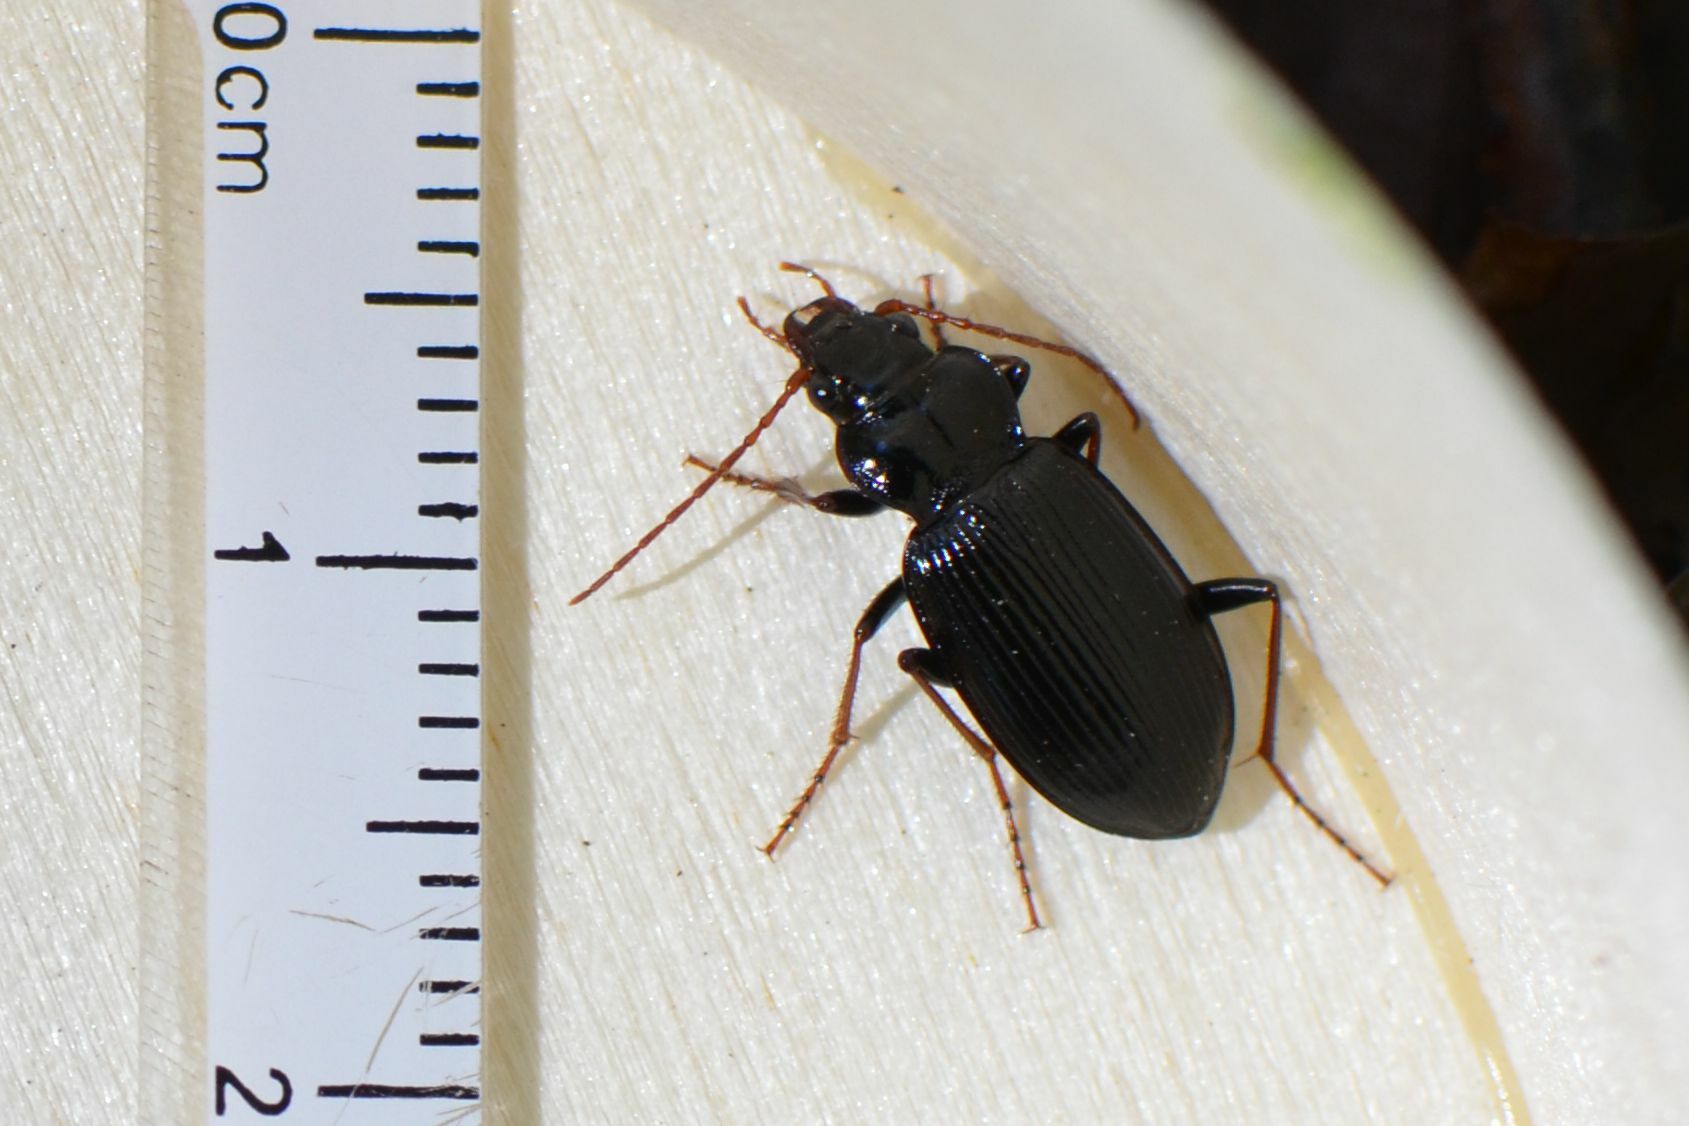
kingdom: Animalia
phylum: Arthropoda
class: Insecta
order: Coleoptera
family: Carabidae
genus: Nebria
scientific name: Nebria brevicollis
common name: Short-necked gazelle beetle
